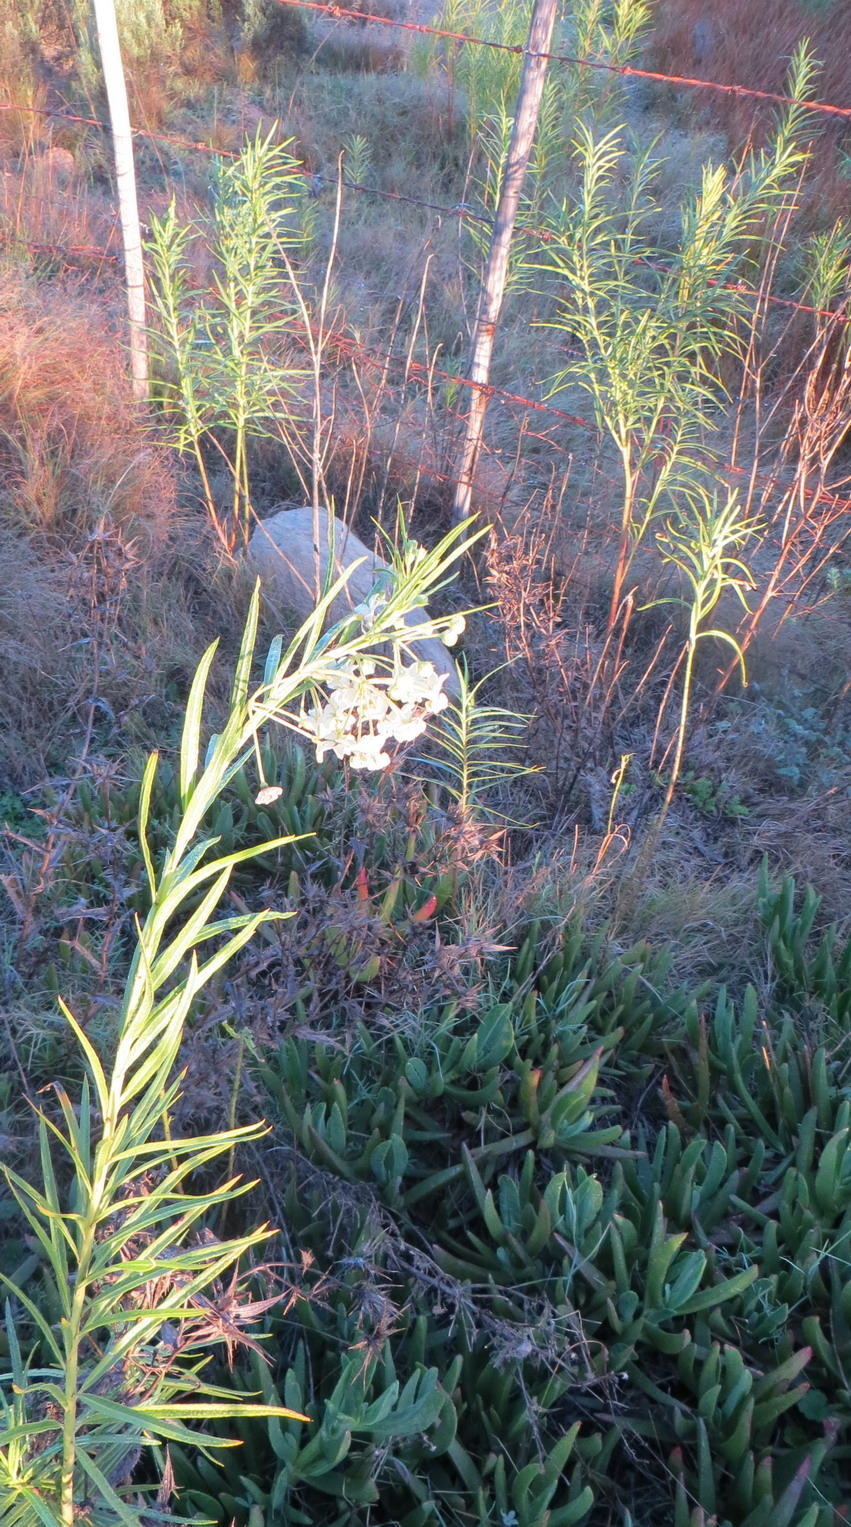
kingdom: Plantae
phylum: Tracheophyta
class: Magnoliopsida
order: Gentianales
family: Apocynaceae
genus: Gomphocarpus
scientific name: Gomphocarpus fruticosus
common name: Milkweed
